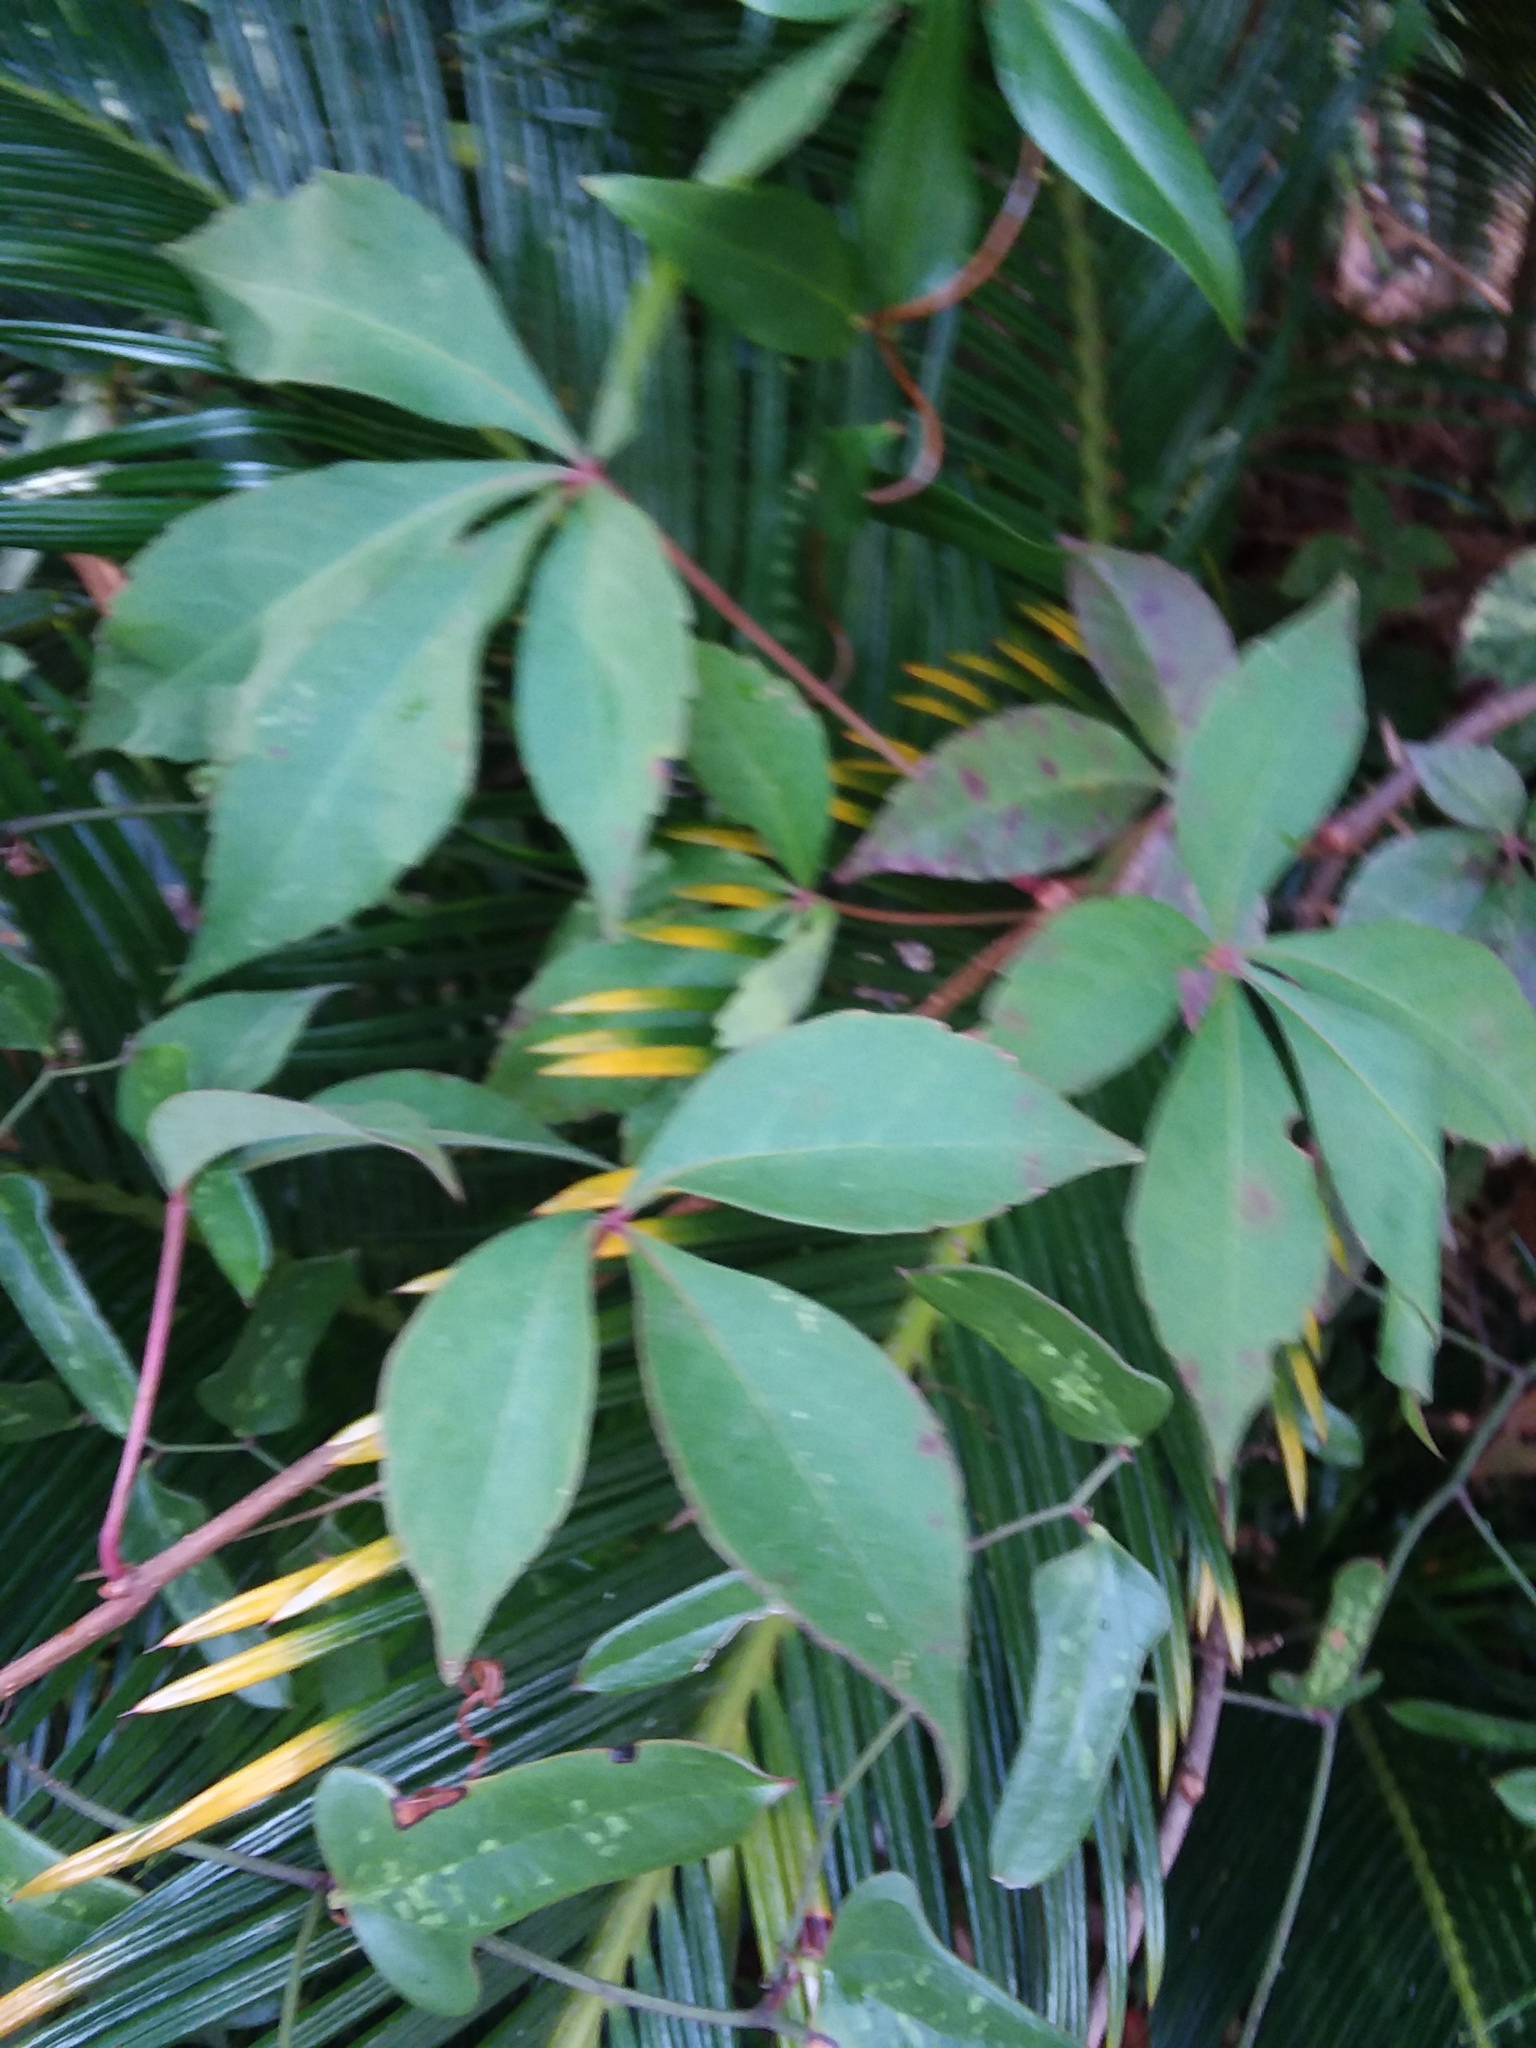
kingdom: Plantae
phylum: Tracheophyta
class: Magnoliopsida
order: Vitales
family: Vitaceae
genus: Parthenocissus
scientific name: Parthenocissus quinquefolia
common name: Virginia-creeper
